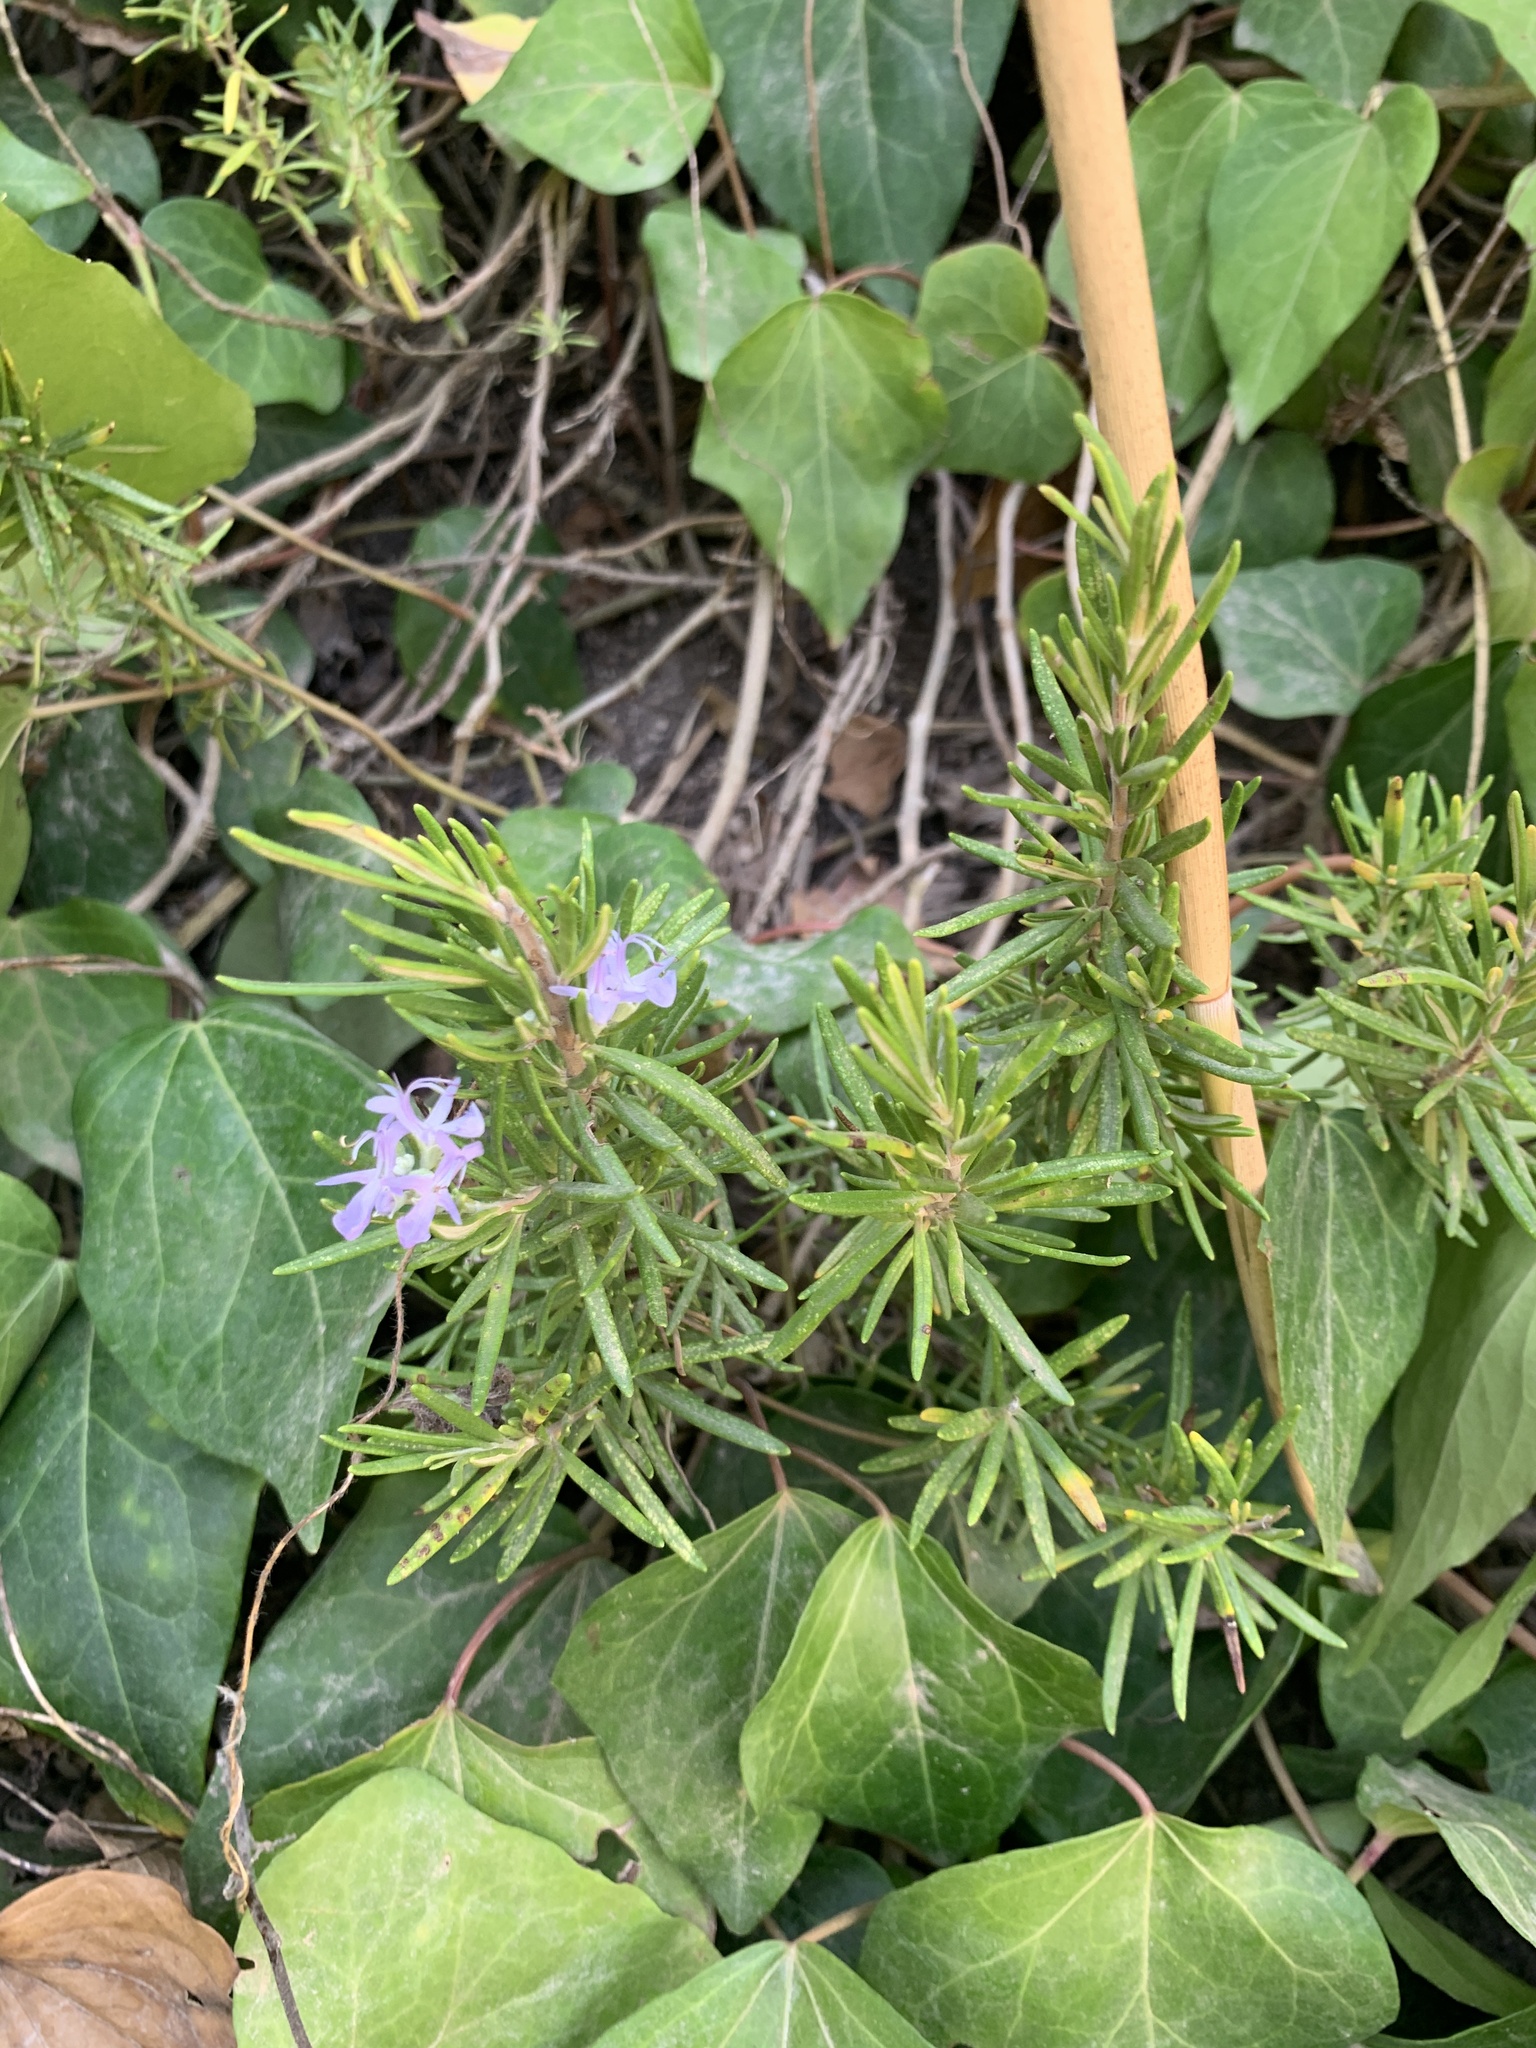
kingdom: Plantae
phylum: Tracheophyta
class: Magnoliopsida
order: Lamiales
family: Lamiaceae
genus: Salvia
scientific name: Salvia rosmarinus
